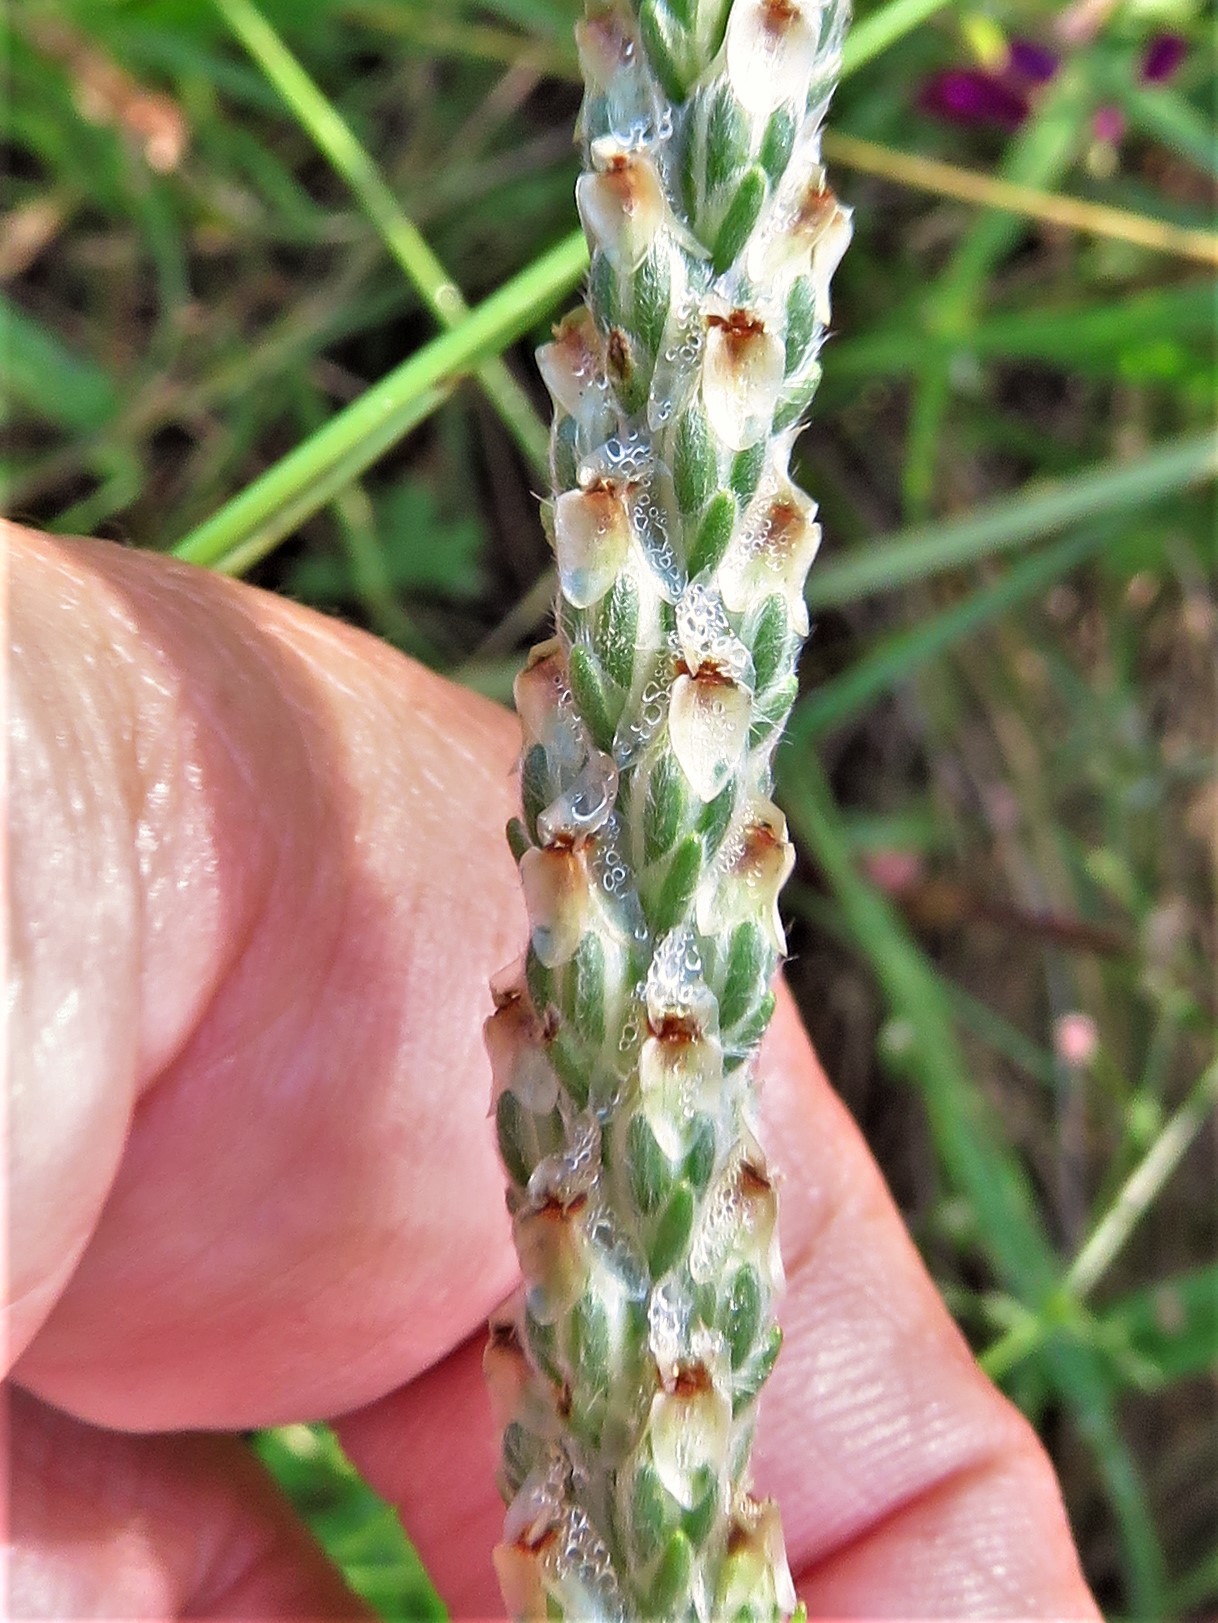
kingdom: Plantae
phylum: Tracheophyta
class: Magnoliopsida
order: Lamiales
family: Plantaginaceae
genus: Plantago
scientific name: Plantago wrightiana
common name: Wright's plantain
